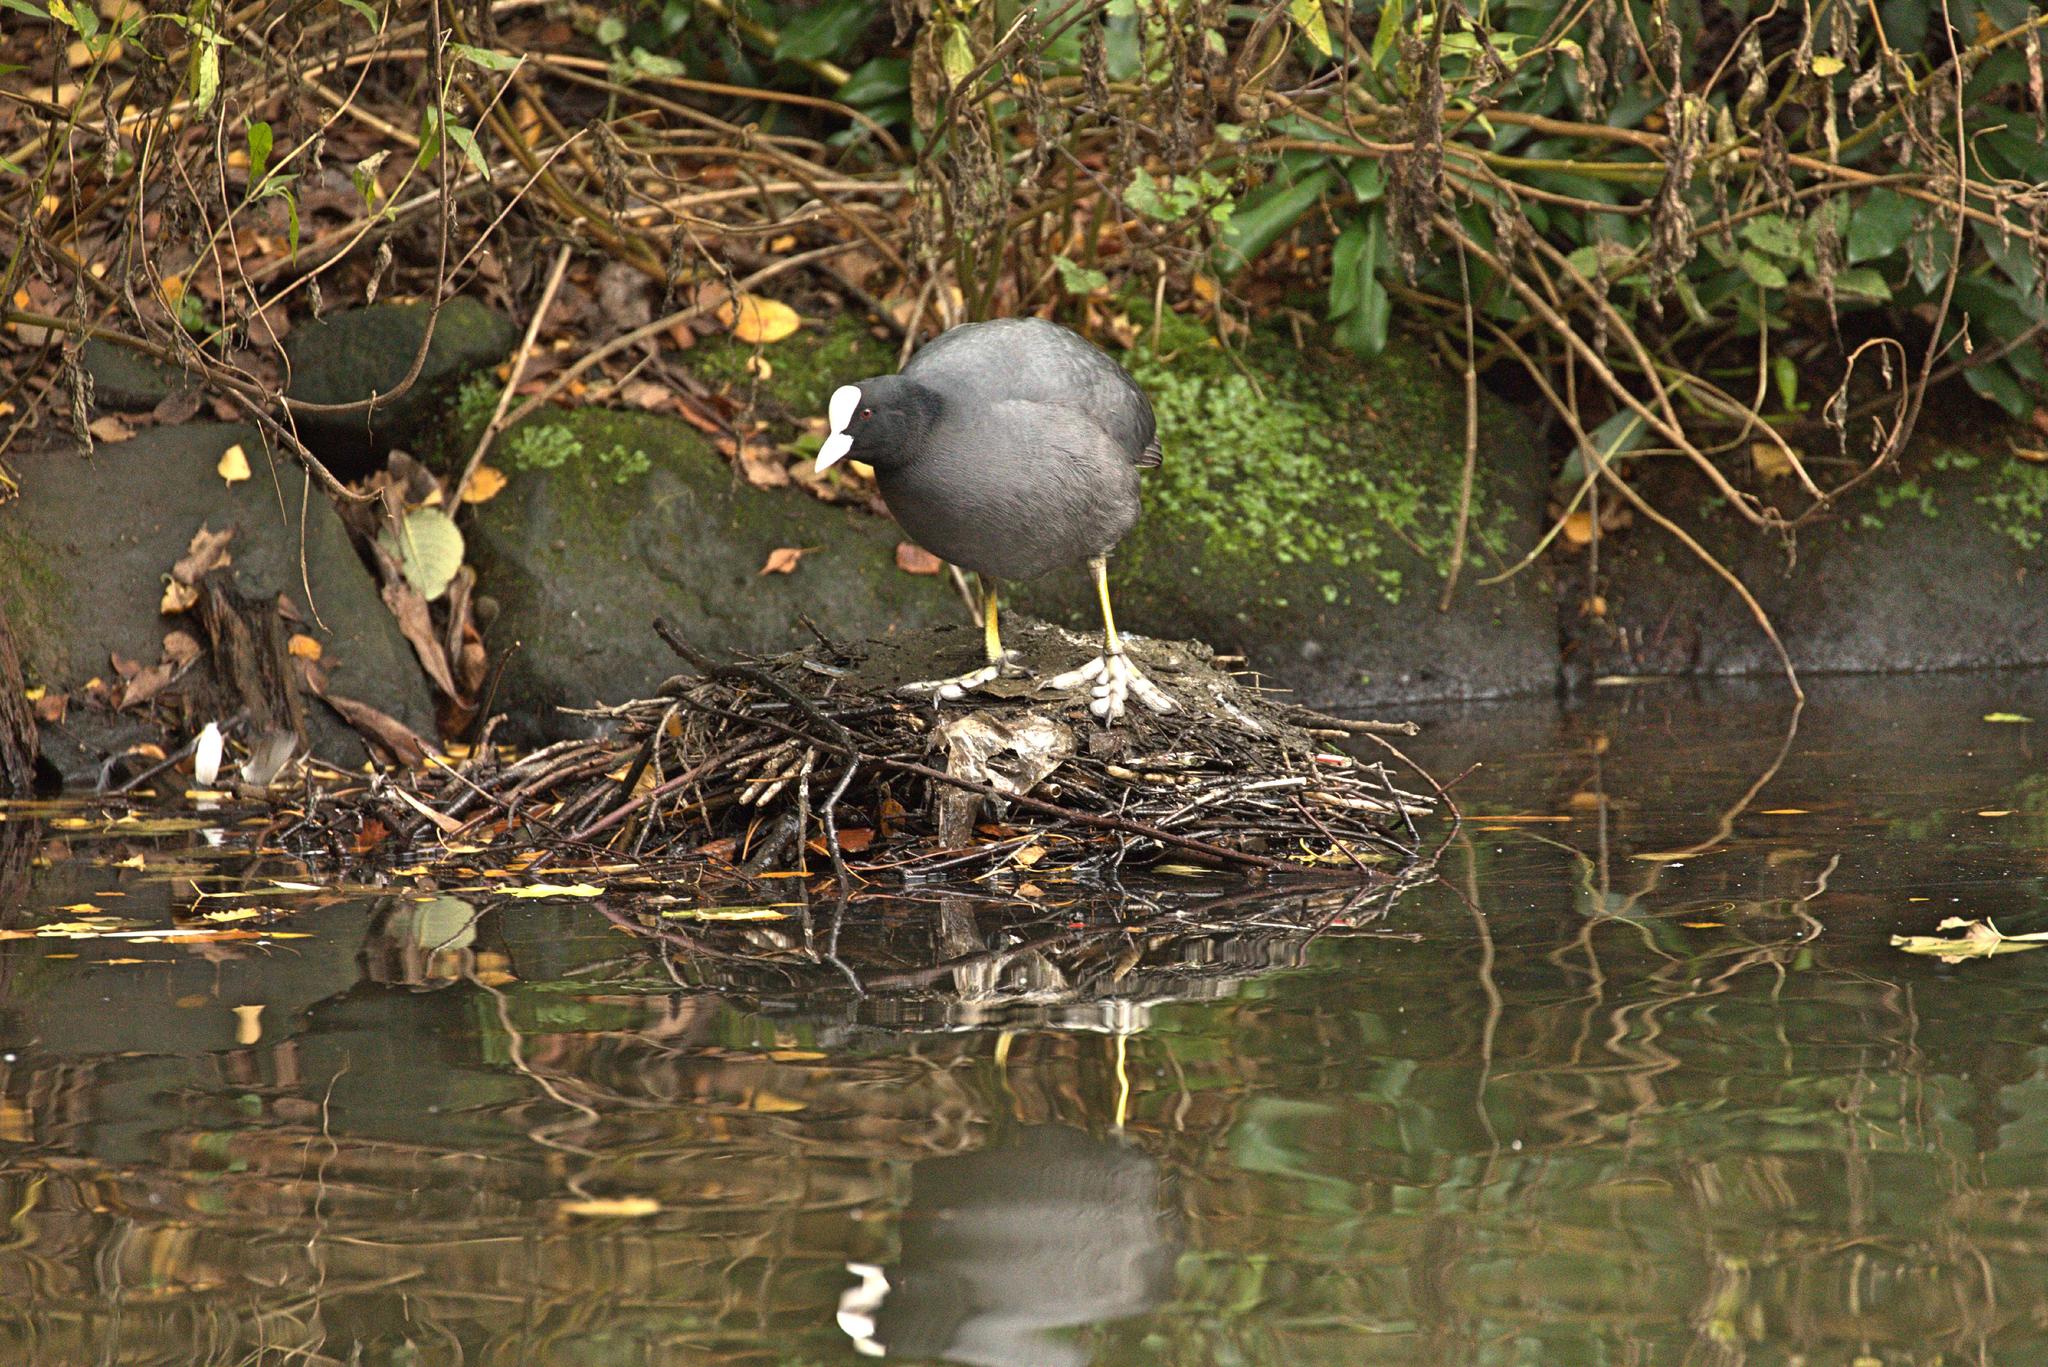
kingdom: Animalia
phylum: Chordata
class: Aves
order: Gruiformes
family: Rallidae
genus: Fulica
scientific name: Fulica atra
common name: Eurasian coot
